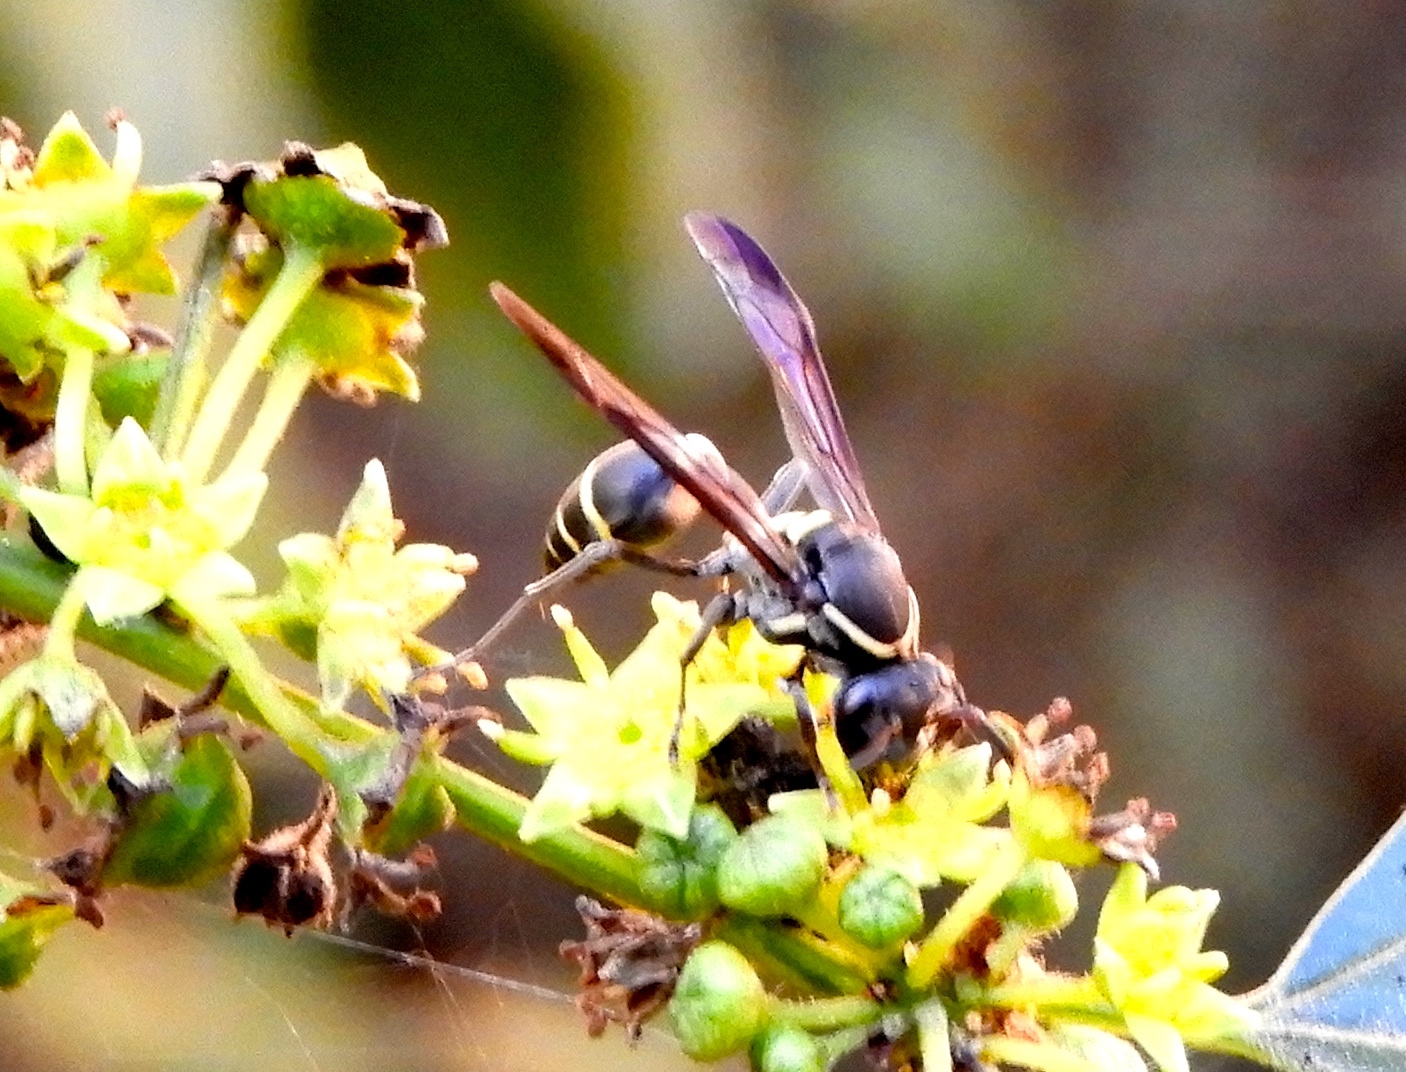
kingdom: Animalia
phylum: Arthropoda
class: Insecta
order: Hymenoptera
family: Eumenidae
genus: Polybia
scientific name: Polybia occidentalis
